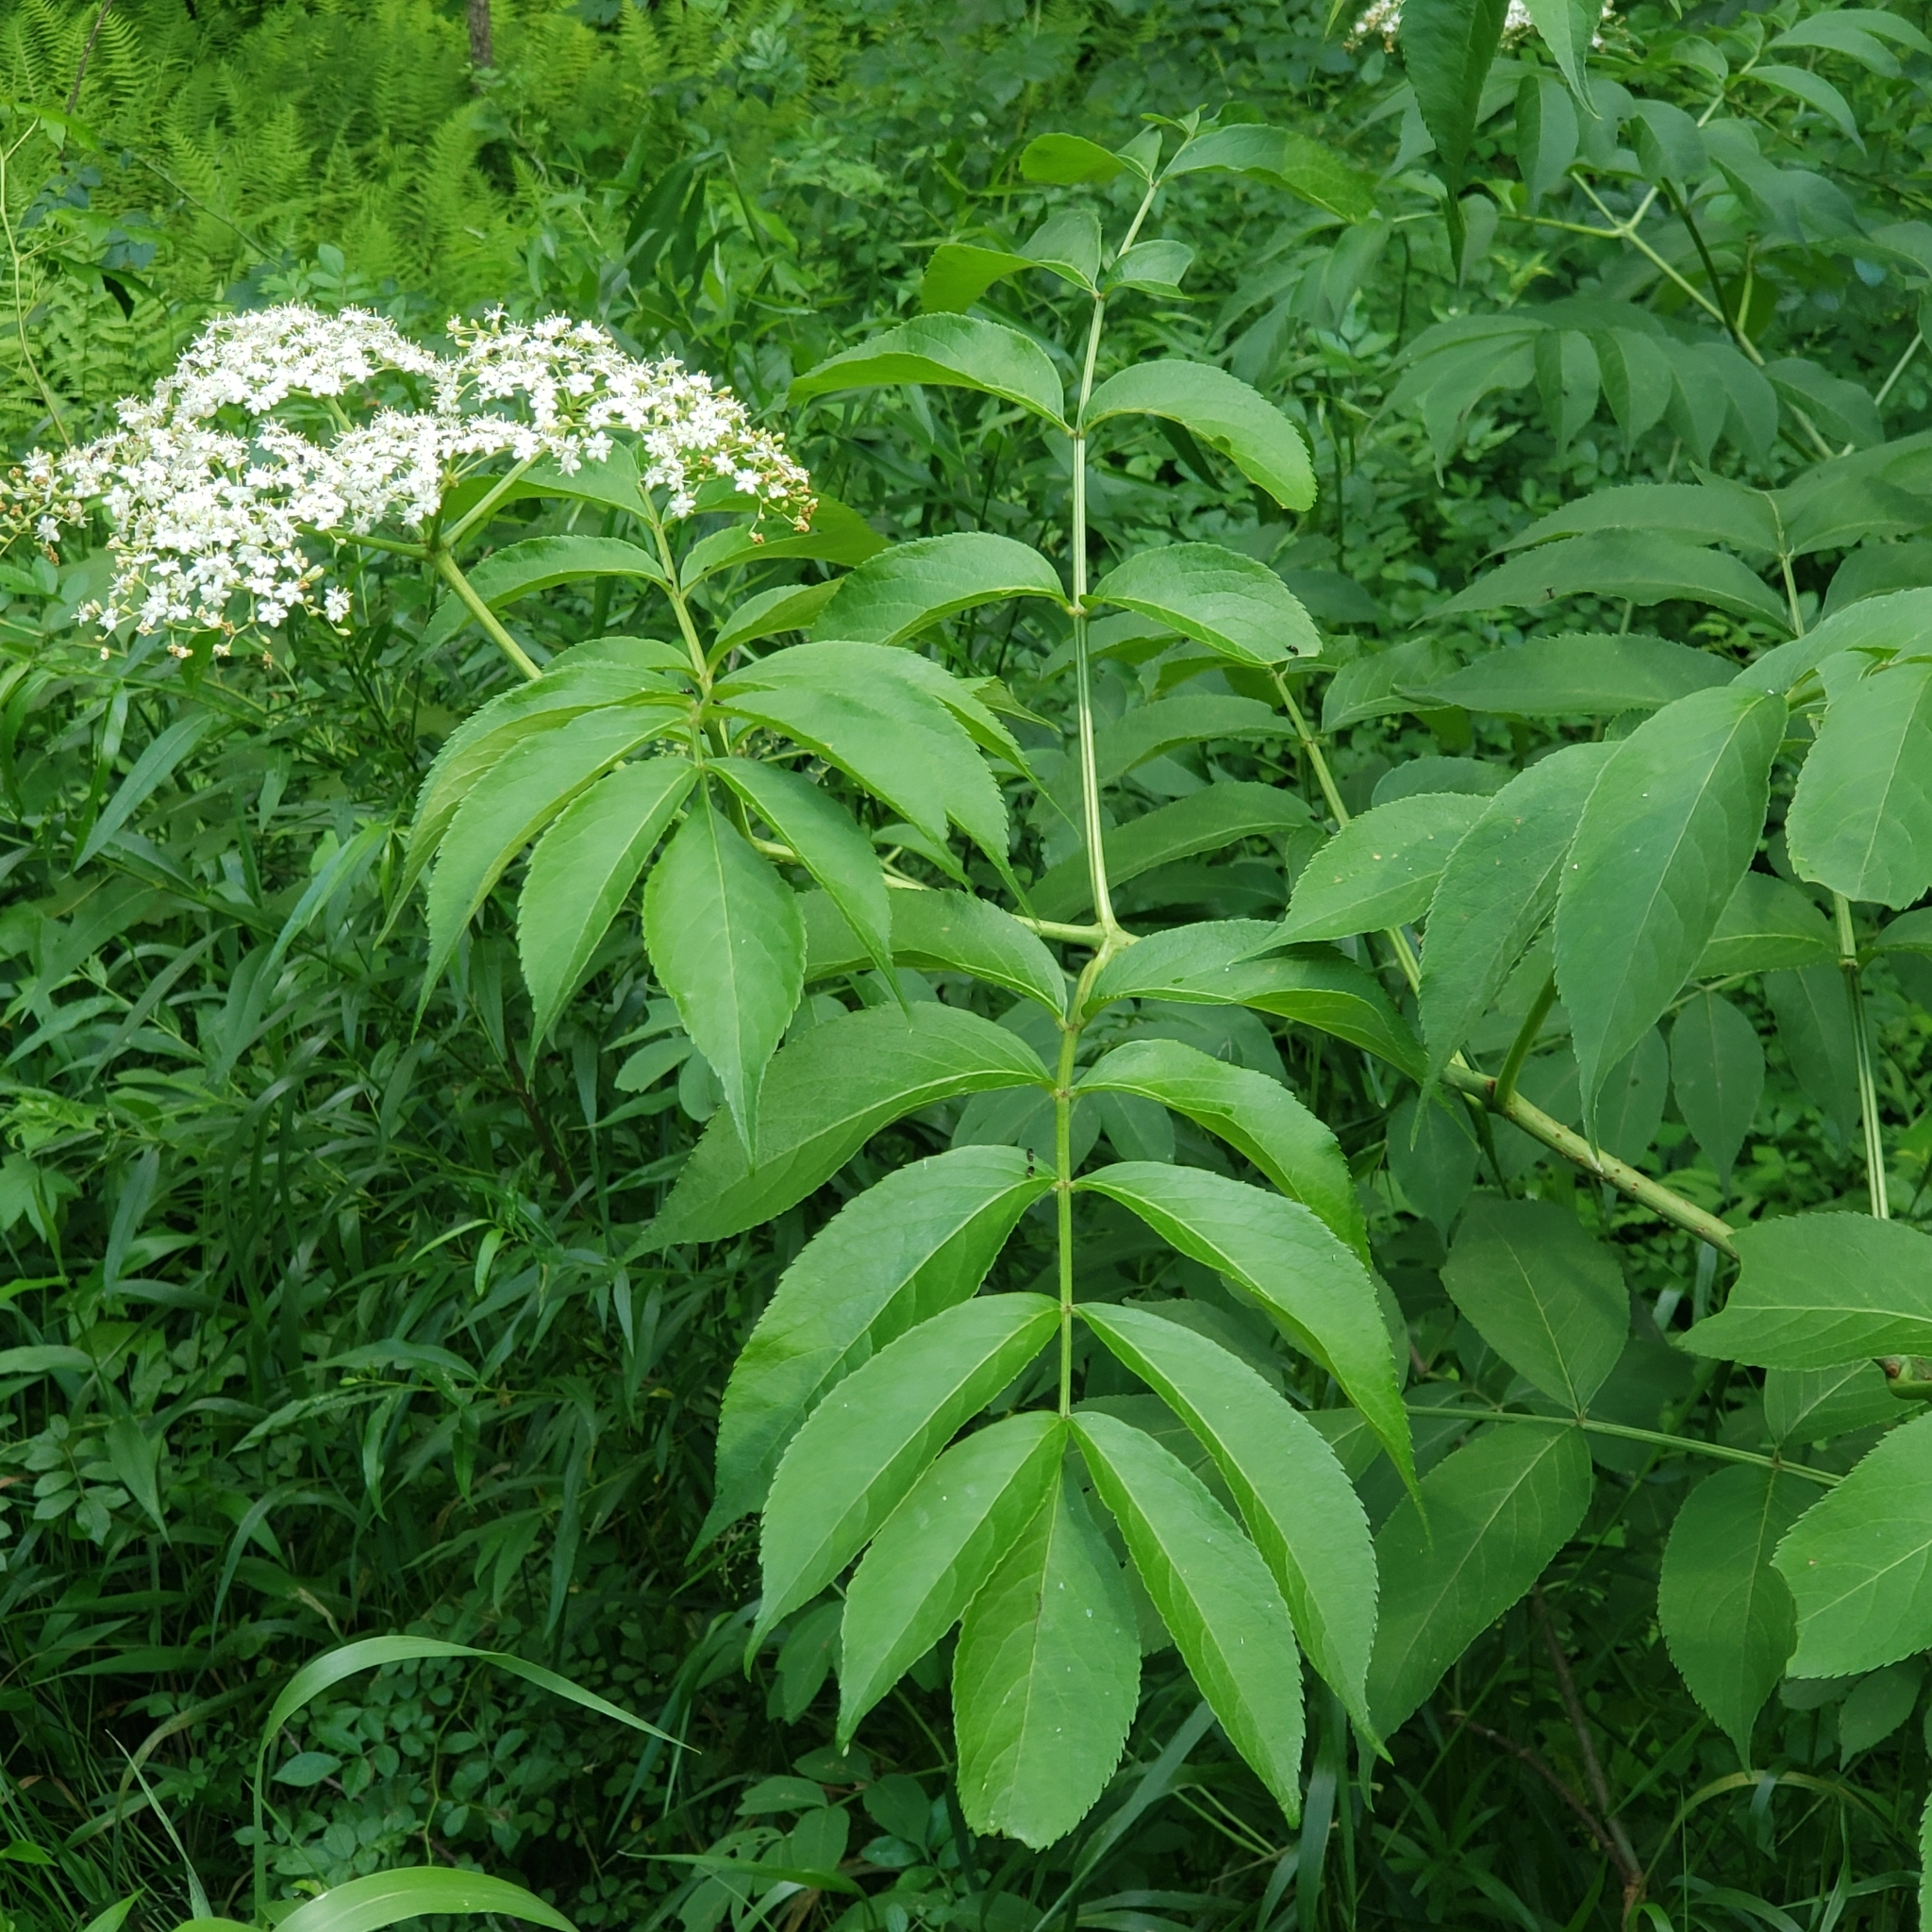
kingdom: Plantae
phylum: Tracheophyta
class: Magnoliopsida
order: Dipsacales
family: Viburnaceae
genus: Sambucus
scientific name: Sambucus canadensis
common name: American elder
